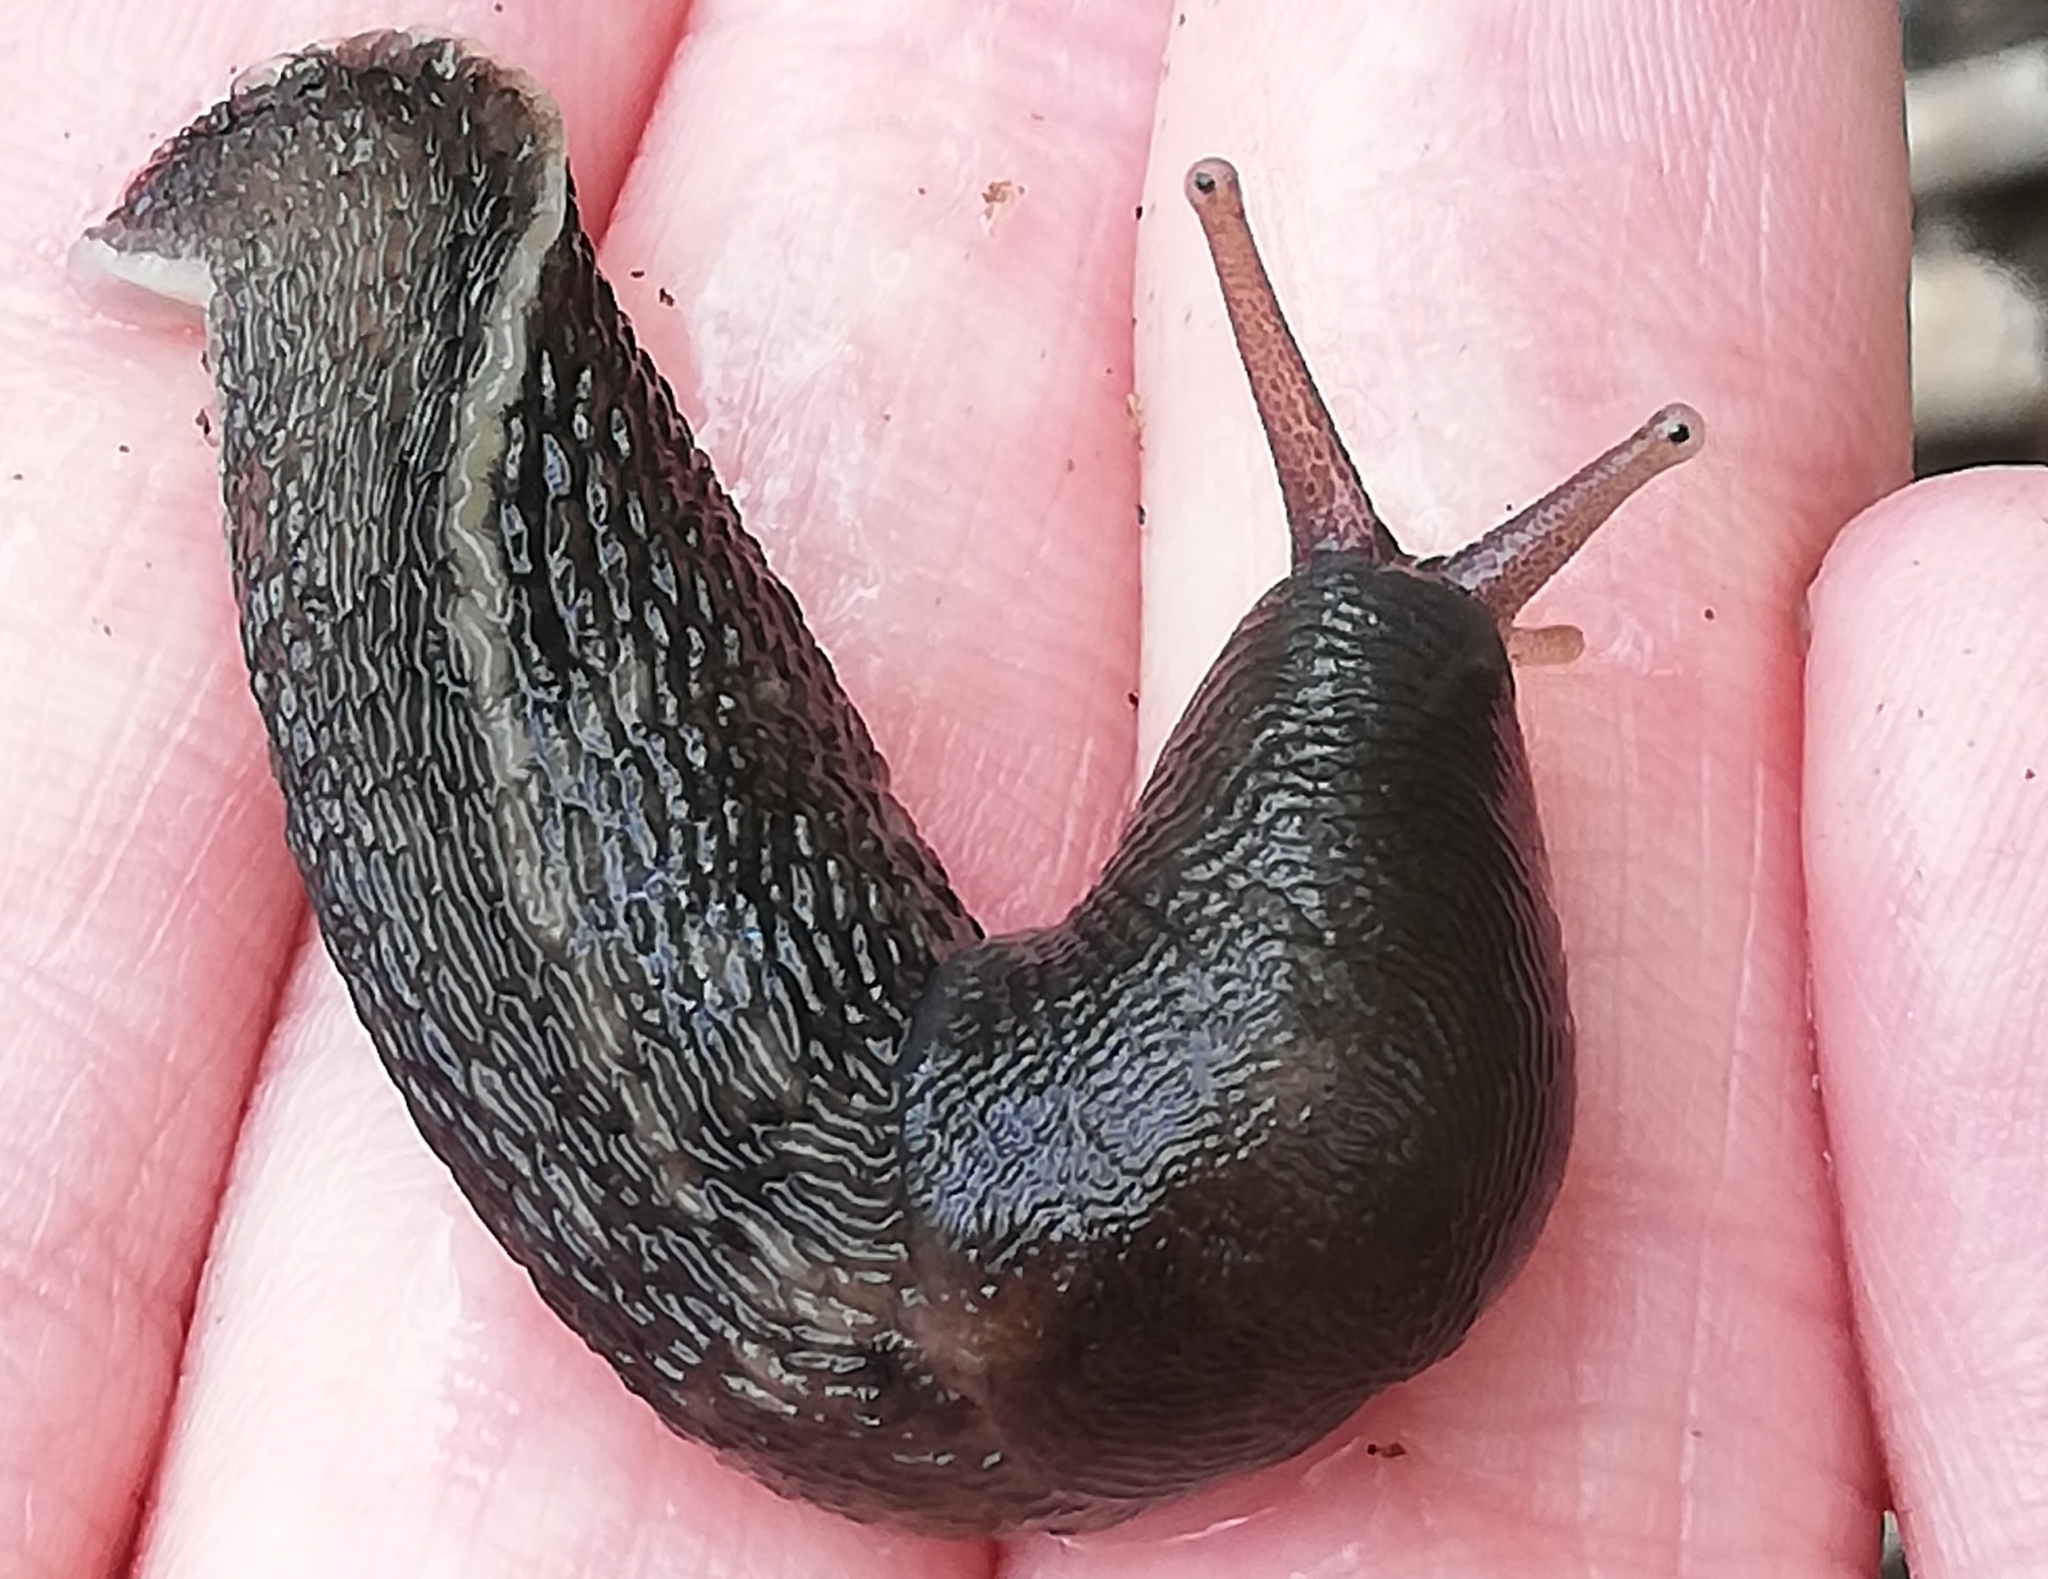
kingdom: Animalia
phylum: Mollusca
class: Gastropoda
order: Stylommatophora
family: Limacidae
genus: Limax
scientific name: Limax cinereoniger
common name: Ash-black slug
